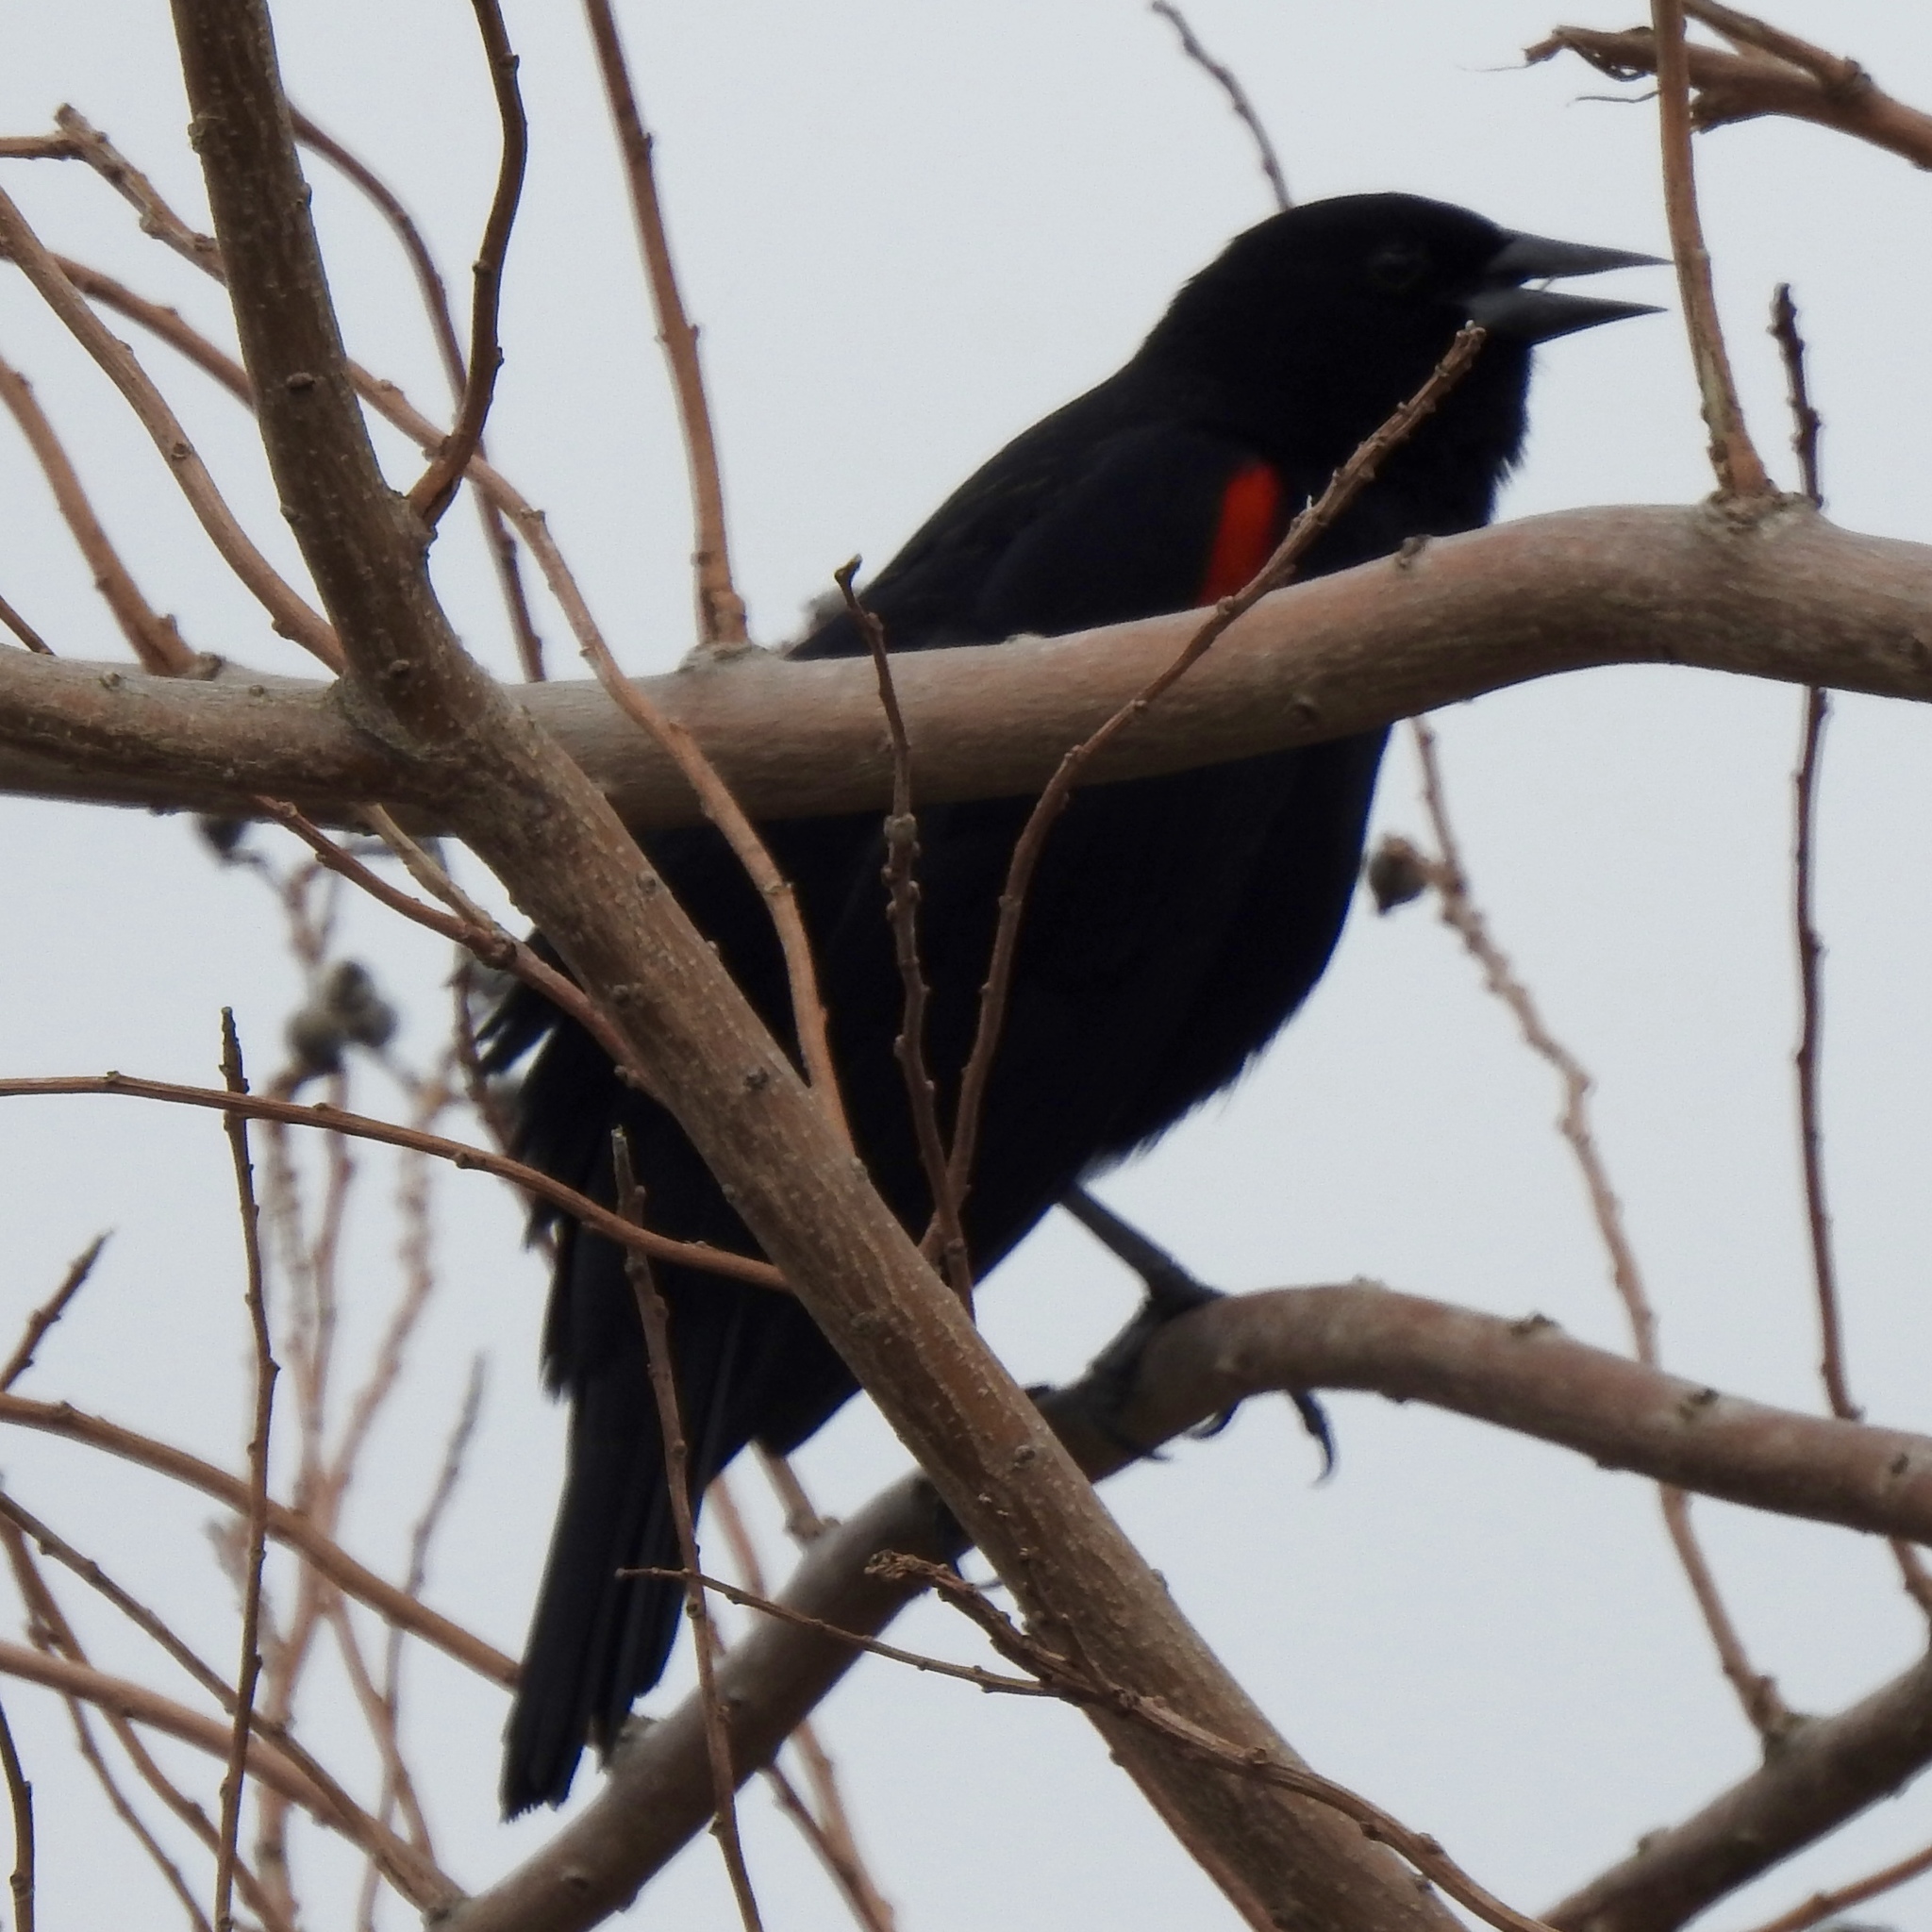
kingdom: Animalia
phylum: Chordata
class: Aves
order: Passeriformes
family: Icteridae
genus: Agelaius
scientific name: Agelaius phoeniceus
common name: Red-winged blackbird
